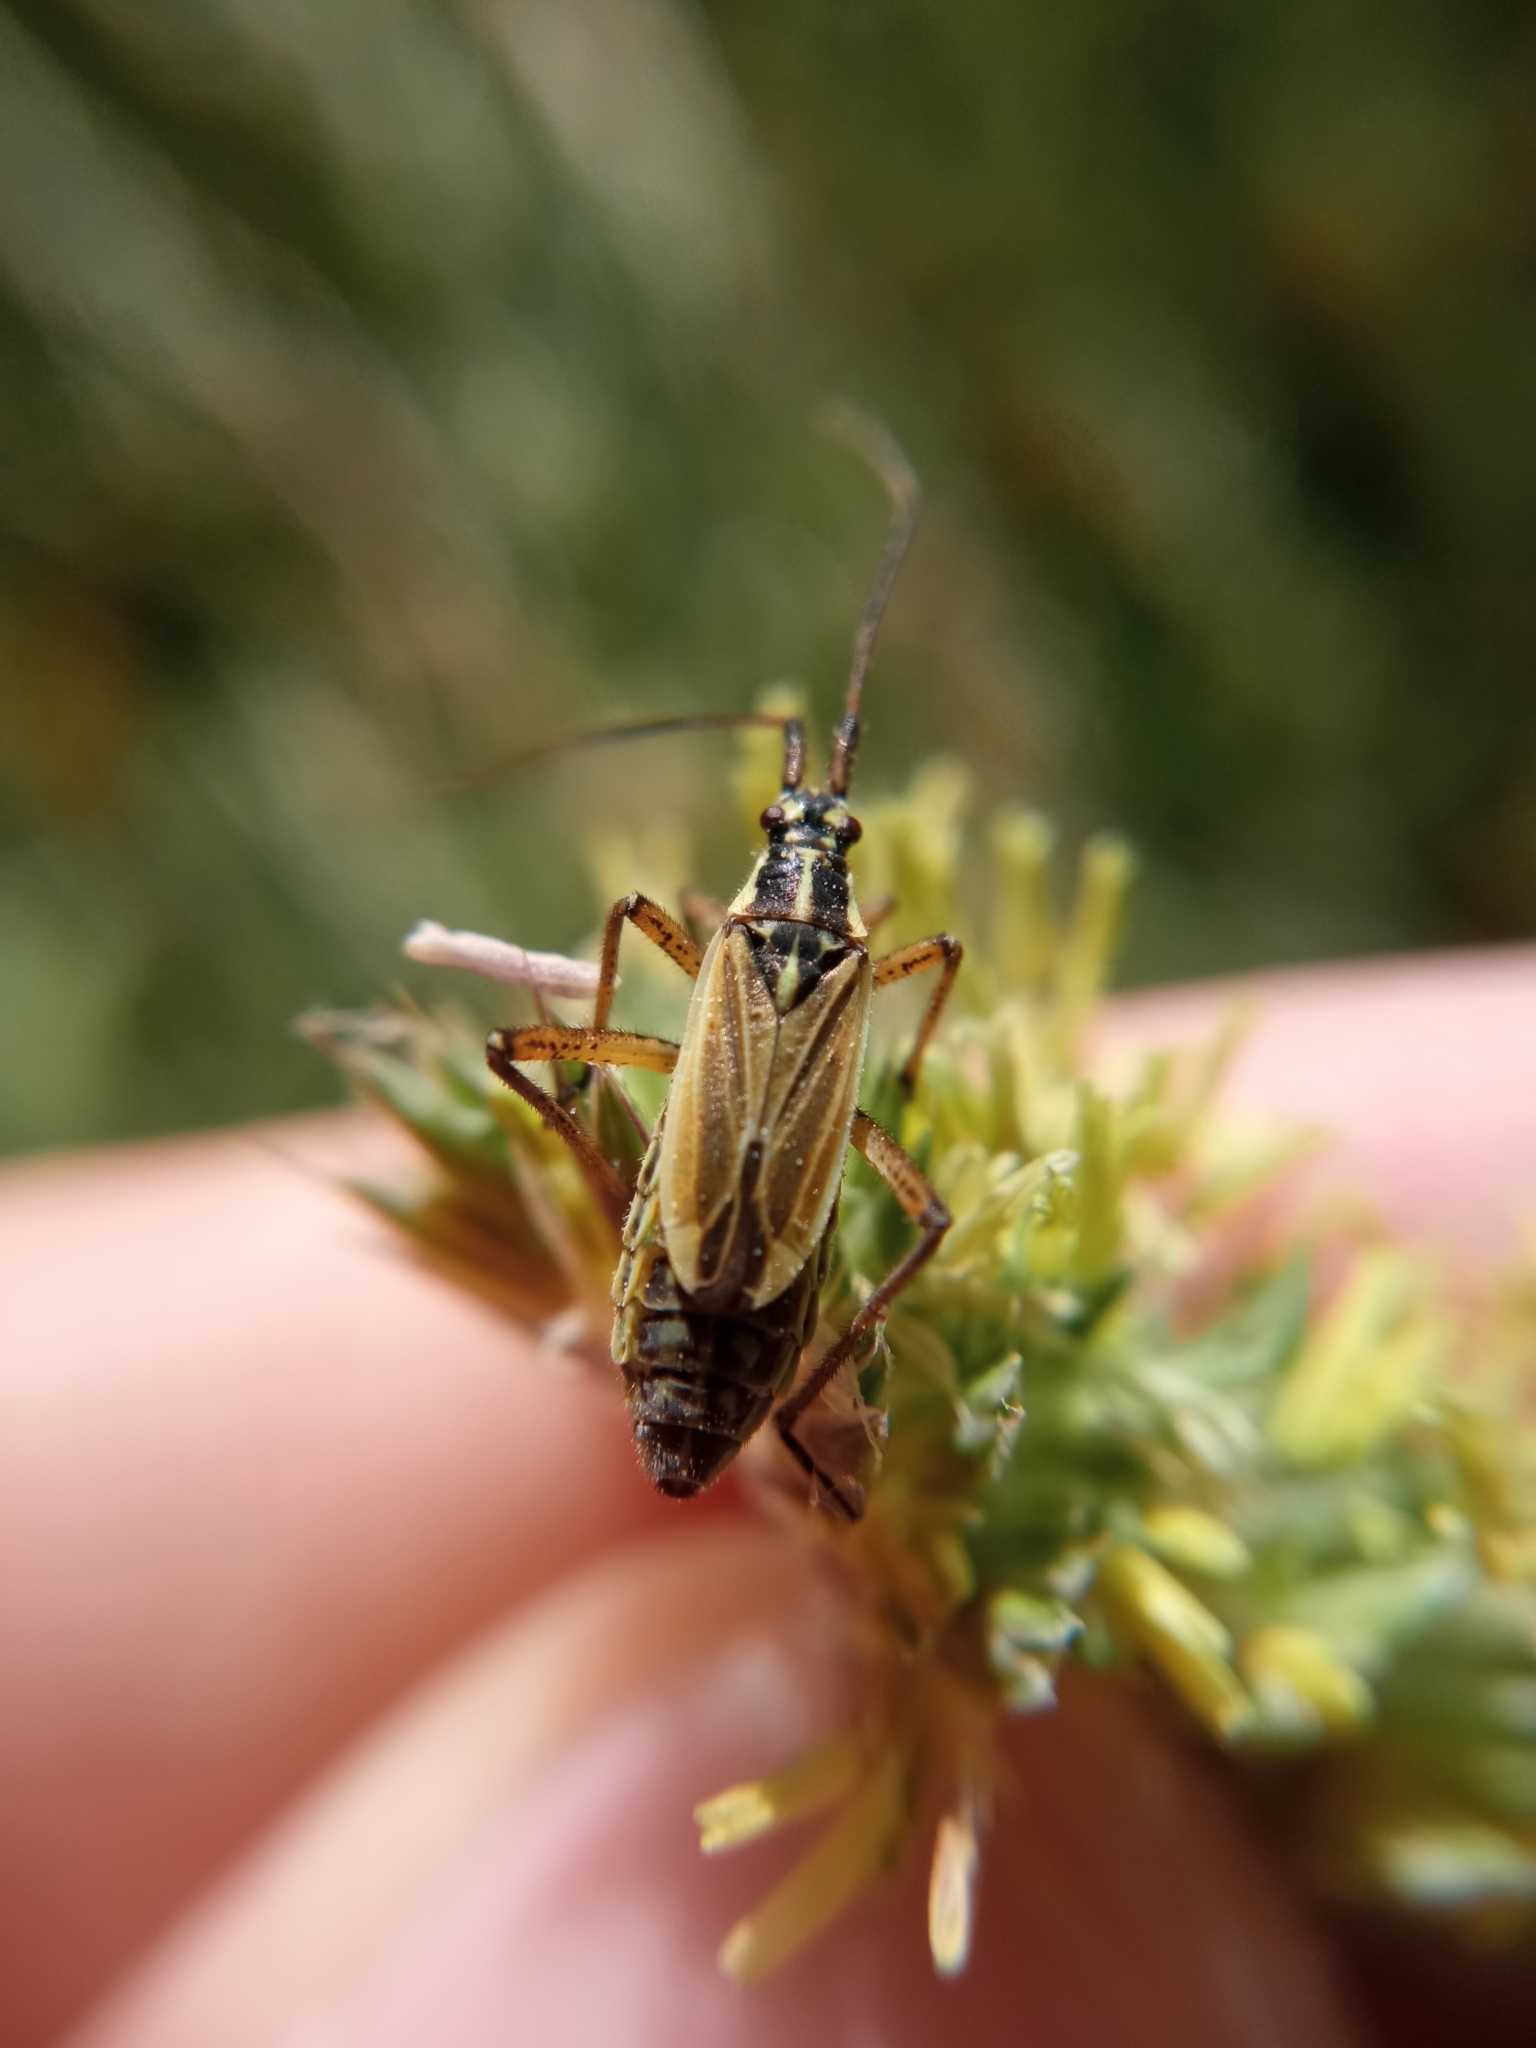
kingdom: Animalia
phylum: Arthropoda
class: Insecta
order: Hemiptera
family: Miridae
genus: Leptopterna
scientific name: Leptopterna dolabrata
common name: Meadow plant bug
